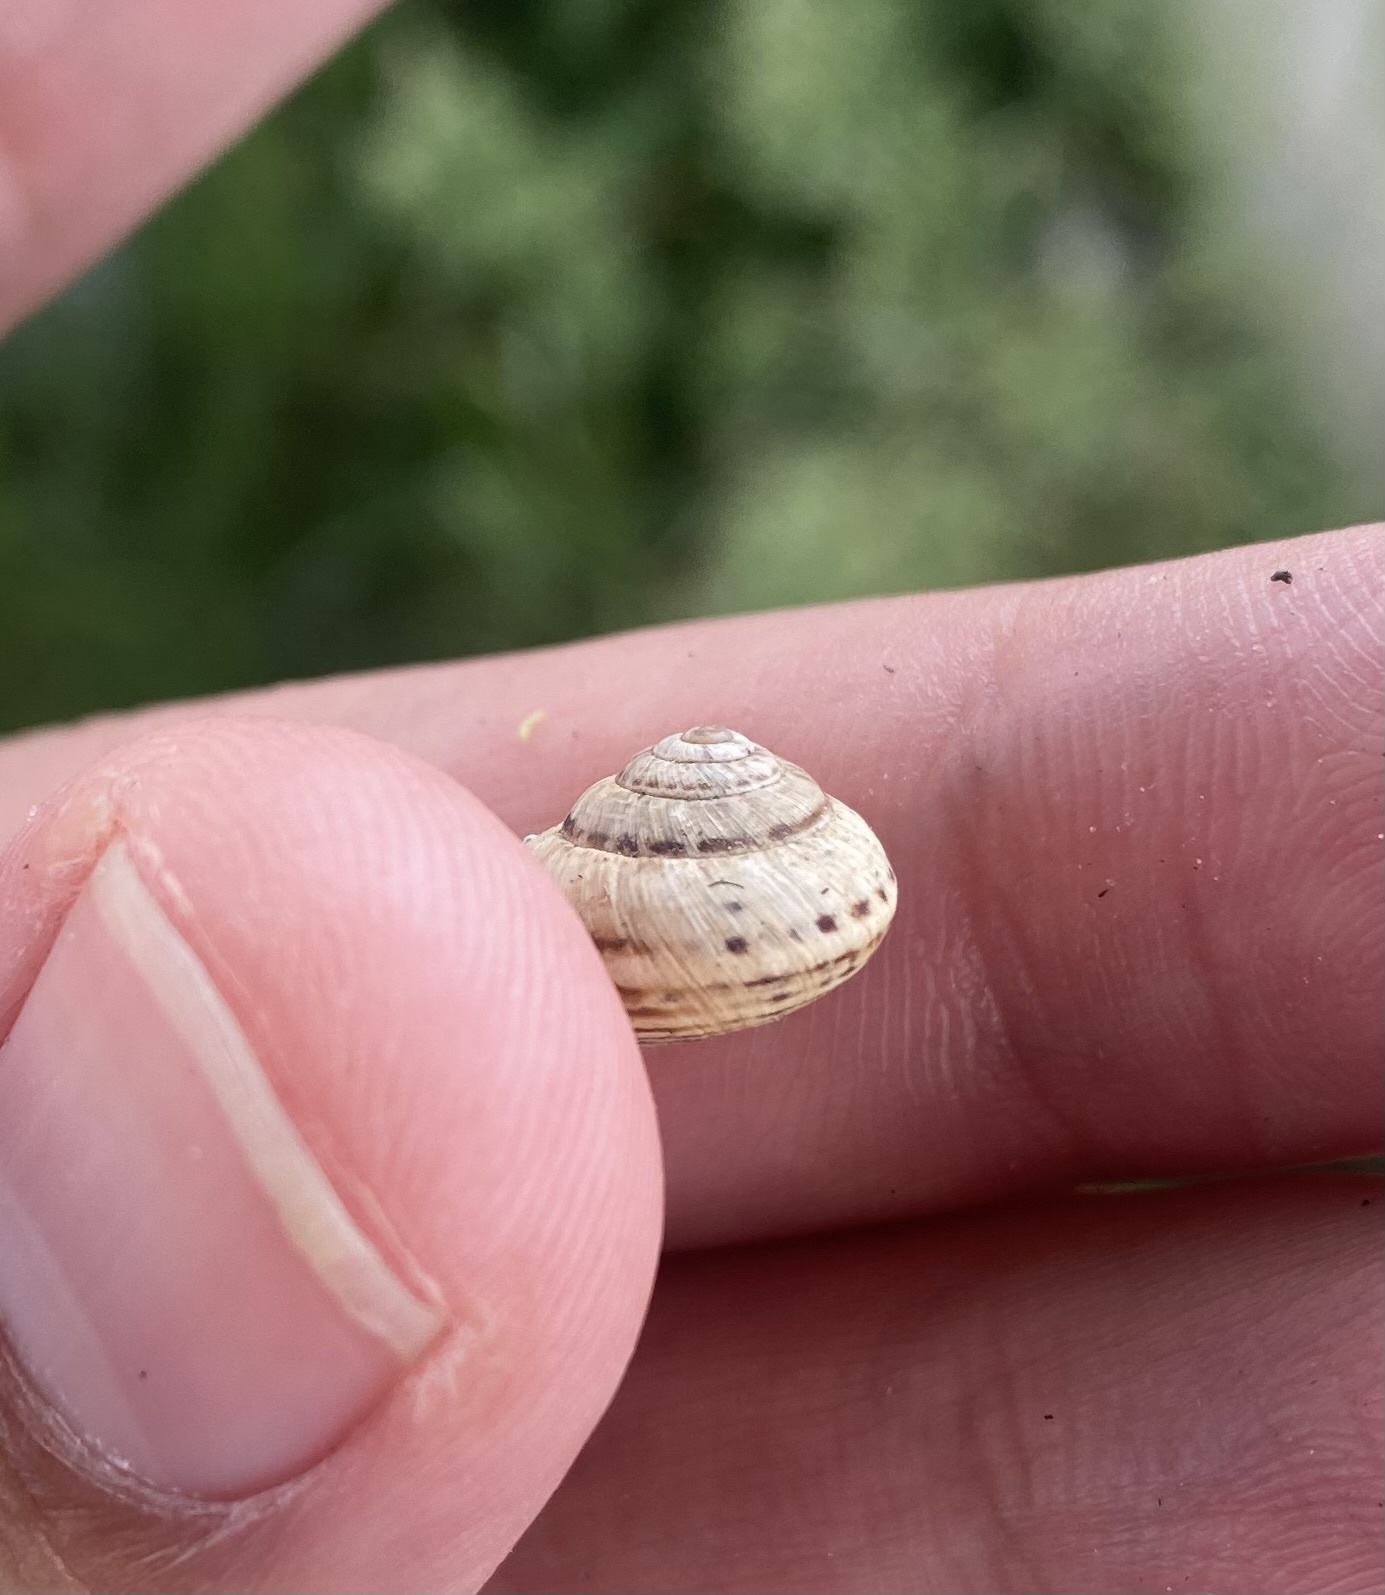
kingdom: Animalia
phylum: Mollusca
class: Gastropoda
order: Stylommatophora
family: Geomitridae
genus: Cernuella
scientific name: Cernuella virgata
